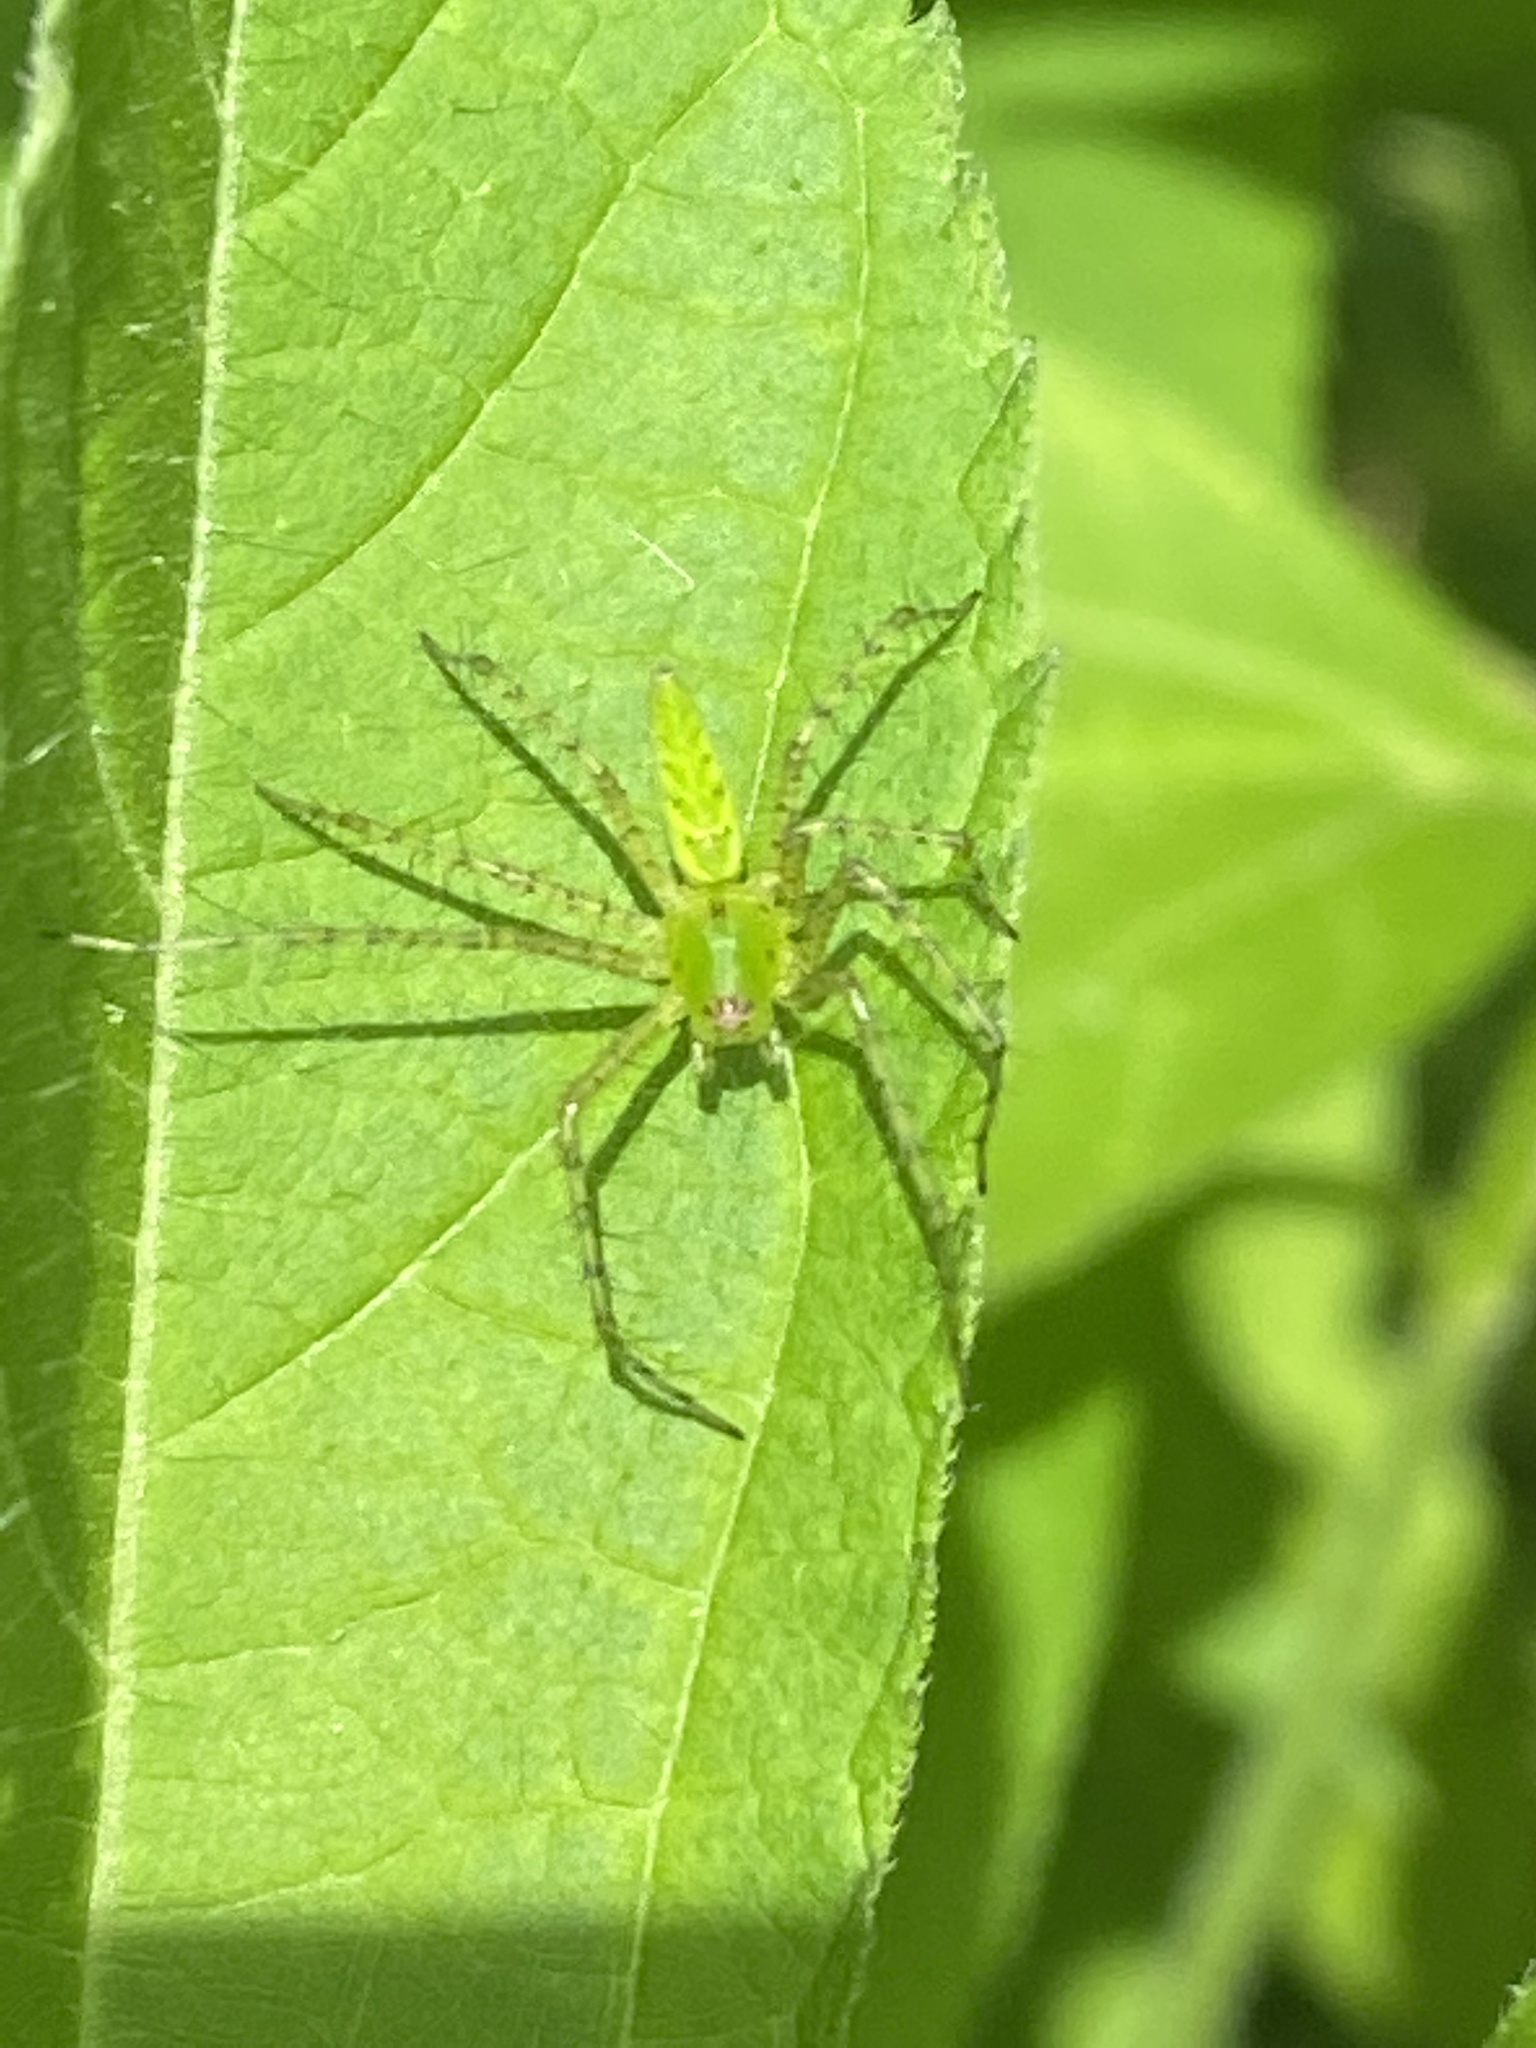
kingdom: Animalia
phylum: Arthropoda
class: Arachnida
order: Araneae
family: Oxyopidae
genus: Peucetia
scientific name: Peucetia viridans
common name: Lynx spiders
